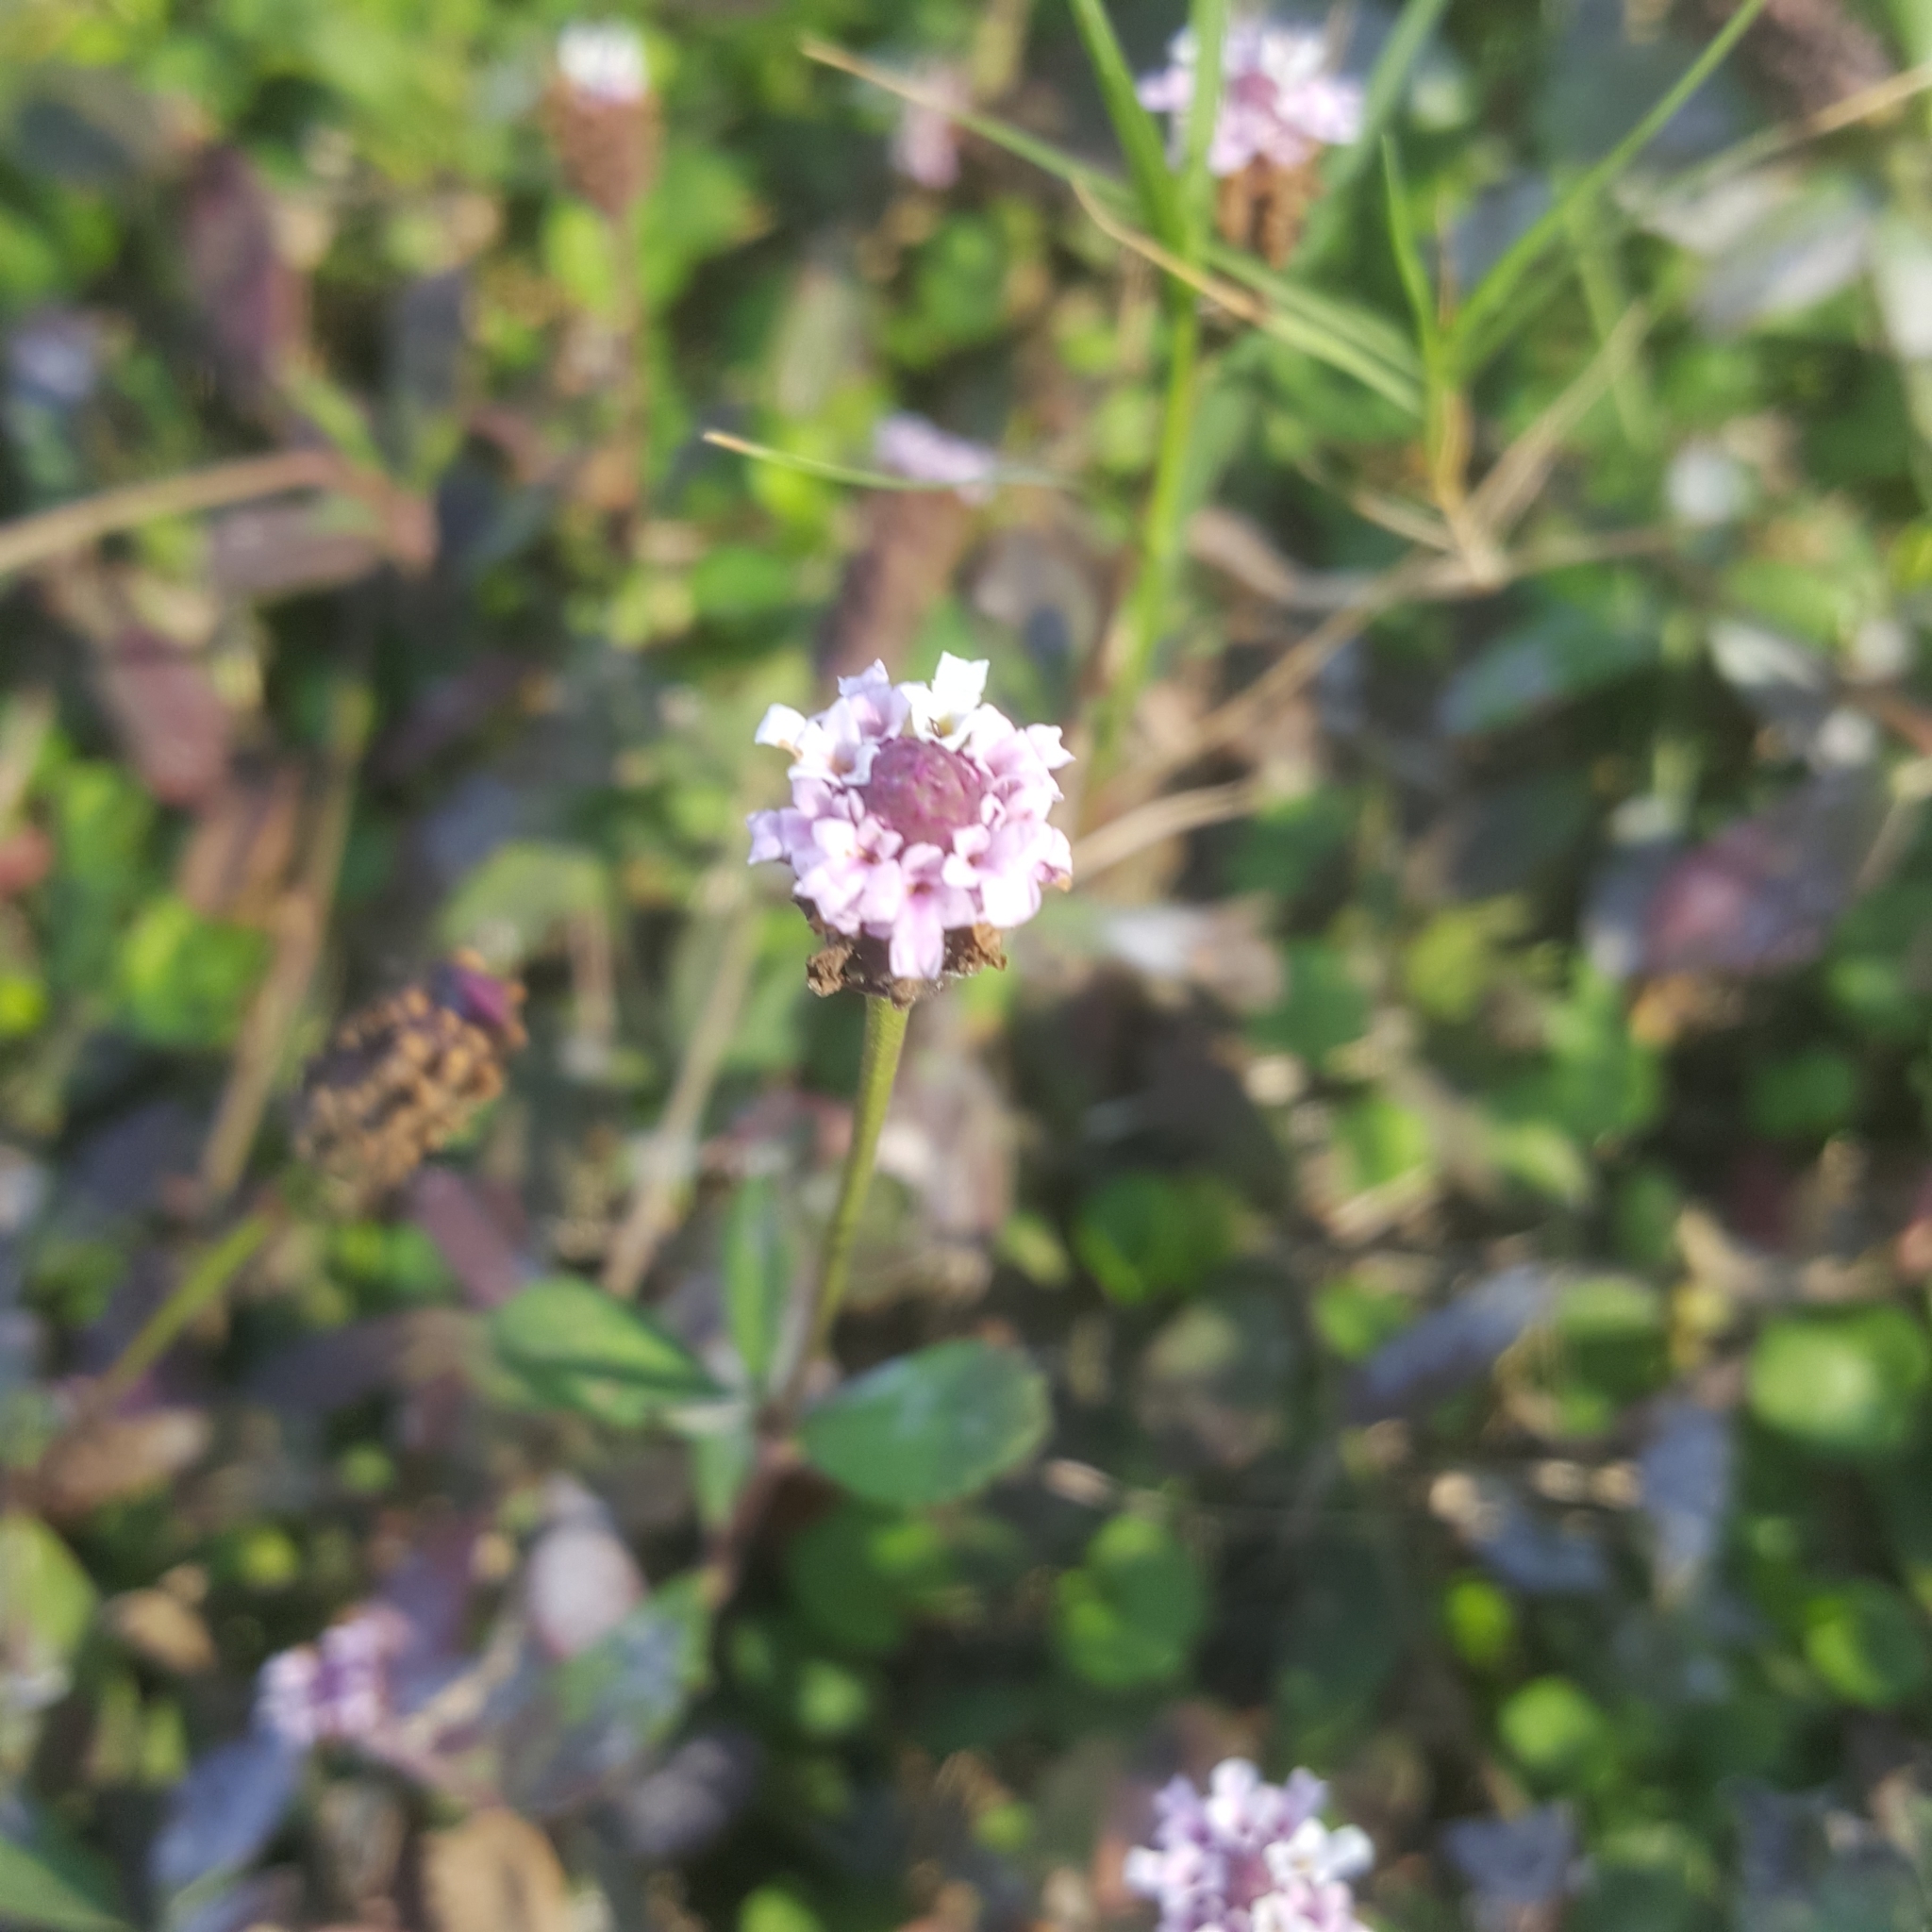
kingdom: Plantae
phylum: Tracheophyta
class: Magnoliopsida
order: Lamiales
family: Verbenaceae
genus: Phyla
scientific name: Phyla nodiflora
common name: Frogfruit
